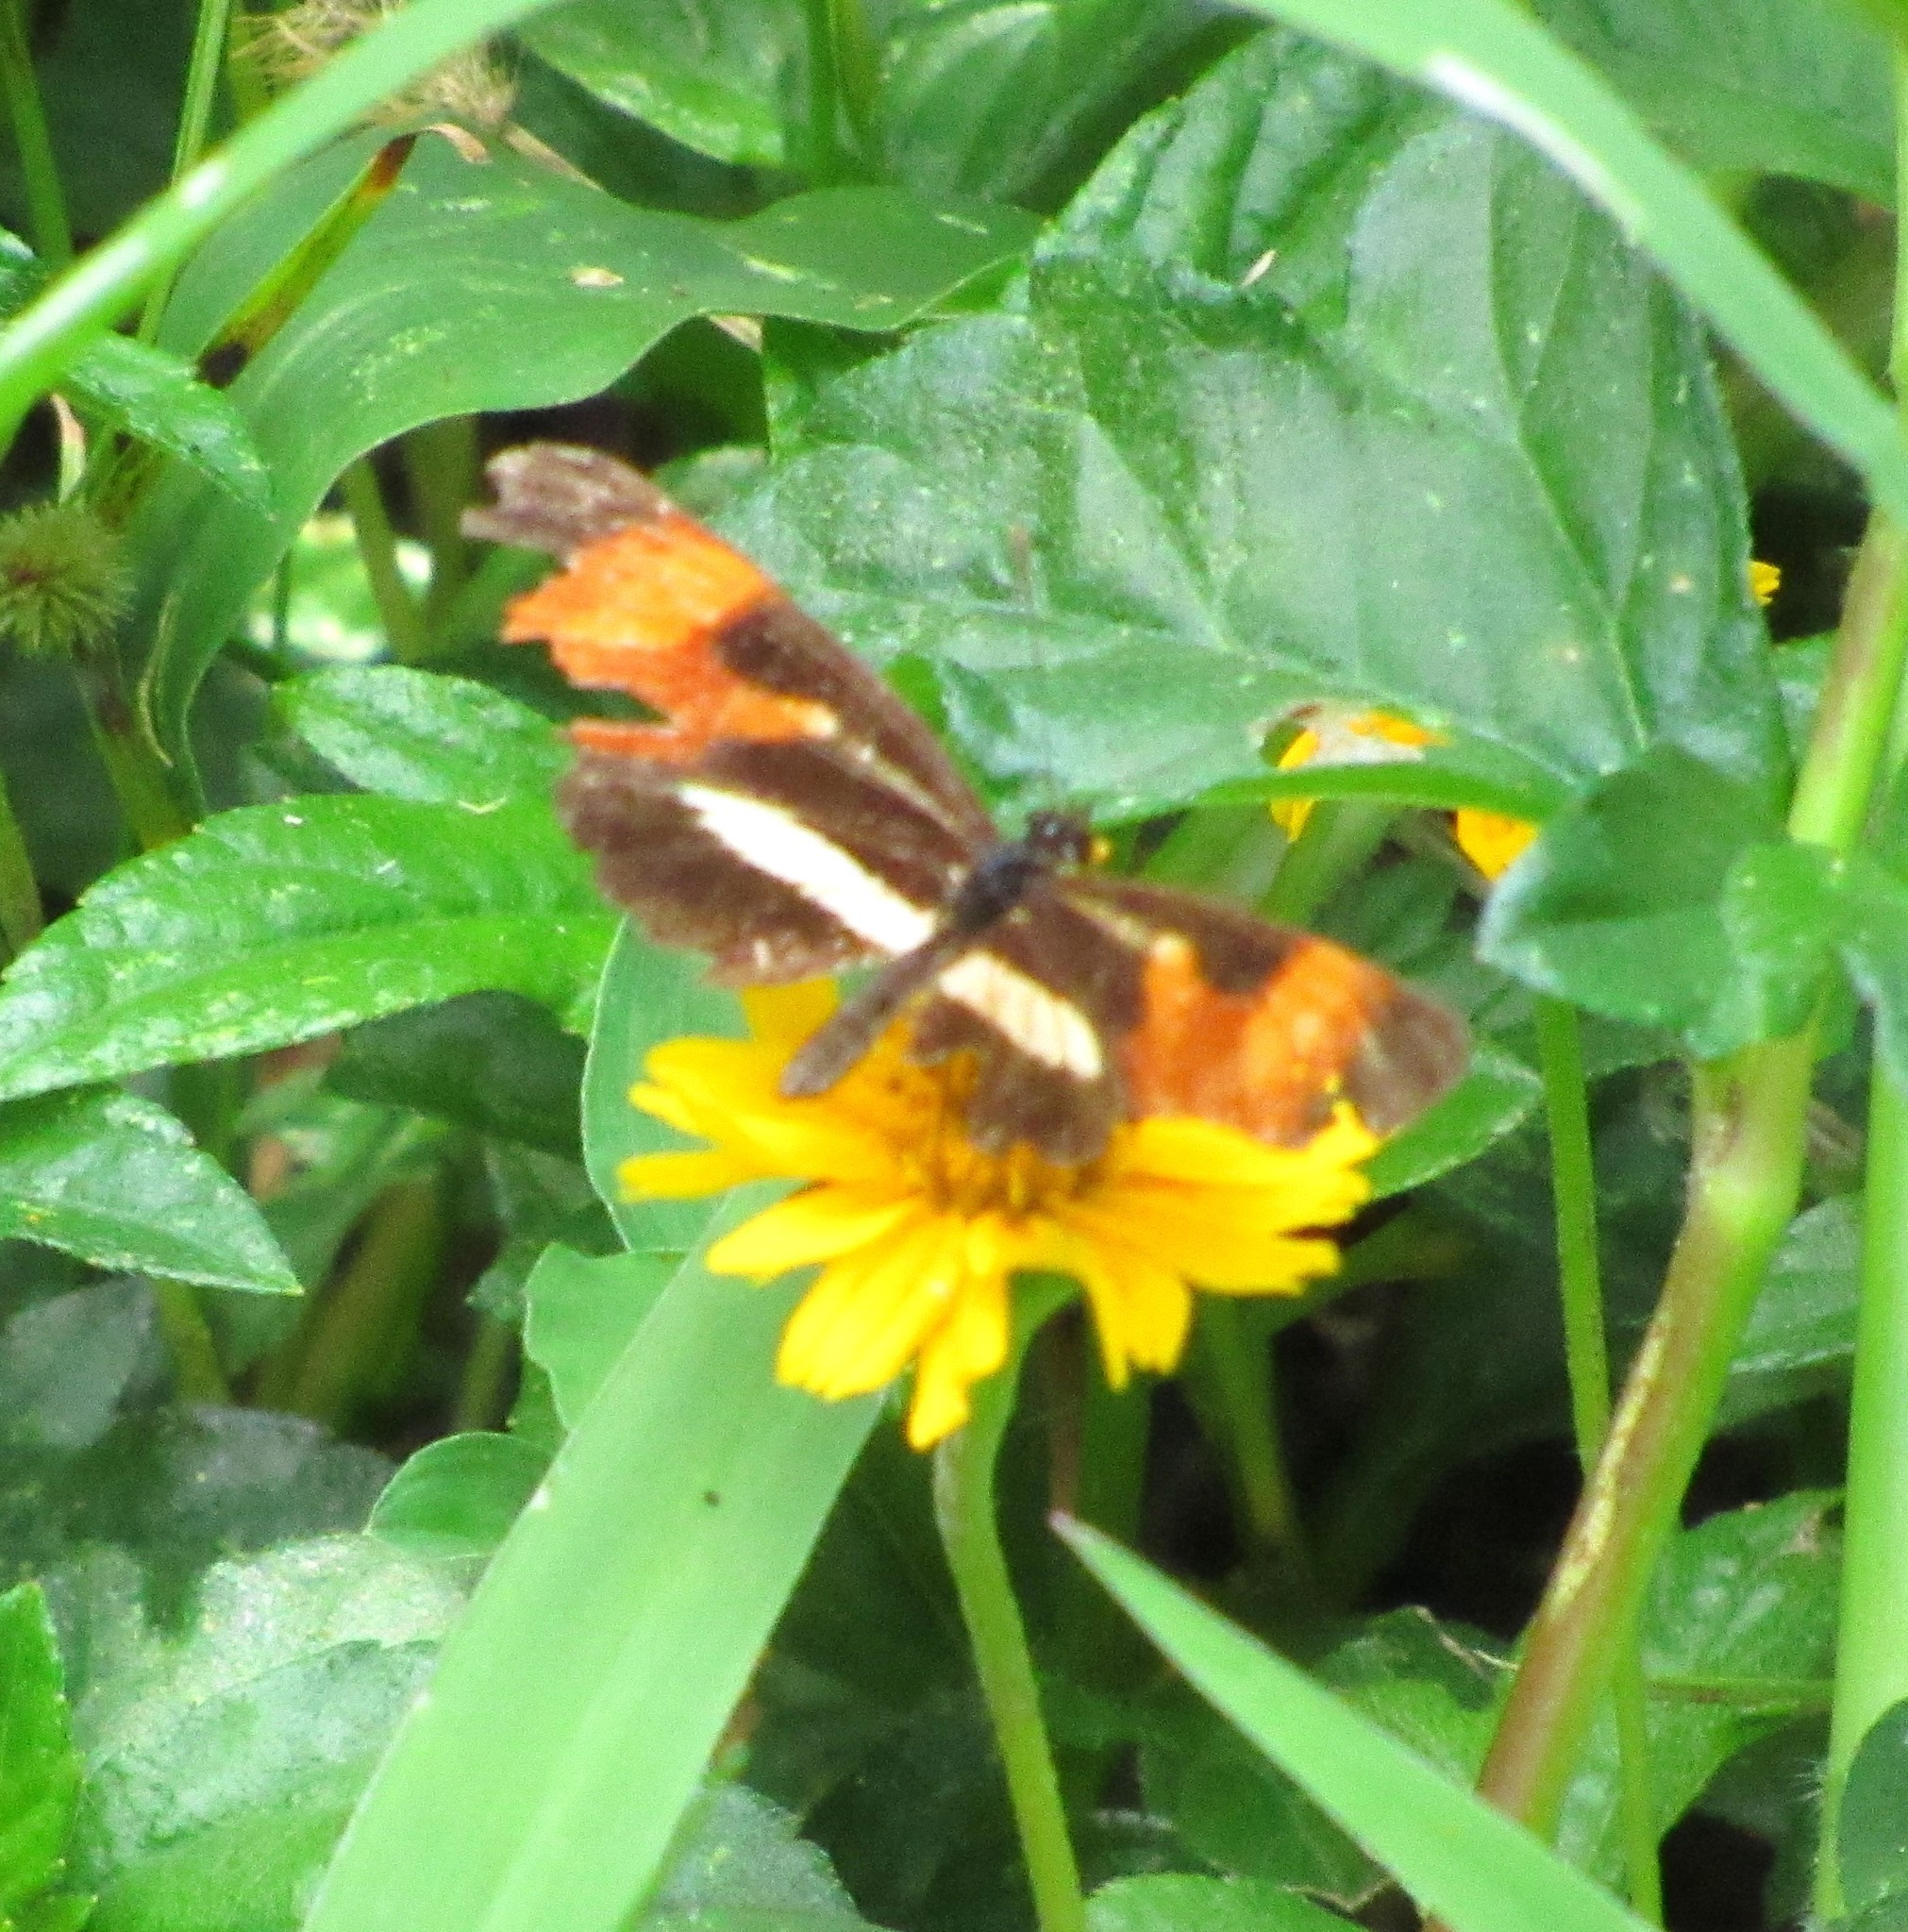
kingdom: Animalia
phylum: Arthropoda
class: Insecta
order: Lepidoptera
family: Nymphalidae
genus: Eresia
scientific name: Eresia lansdorfi
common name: Lansdorf's crescent
